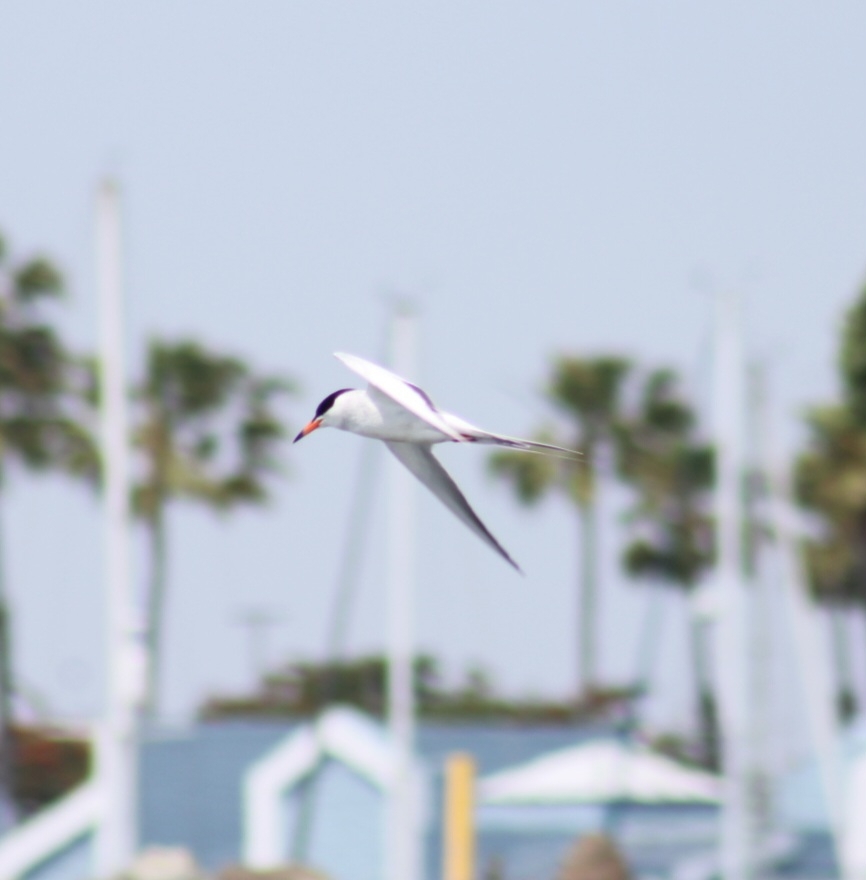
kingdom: Animalia
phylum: Chordata
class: Aves
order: Charadriiformes
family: Laridae
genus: Sterna
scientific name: Sterna forsteri
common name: Forster's tern
